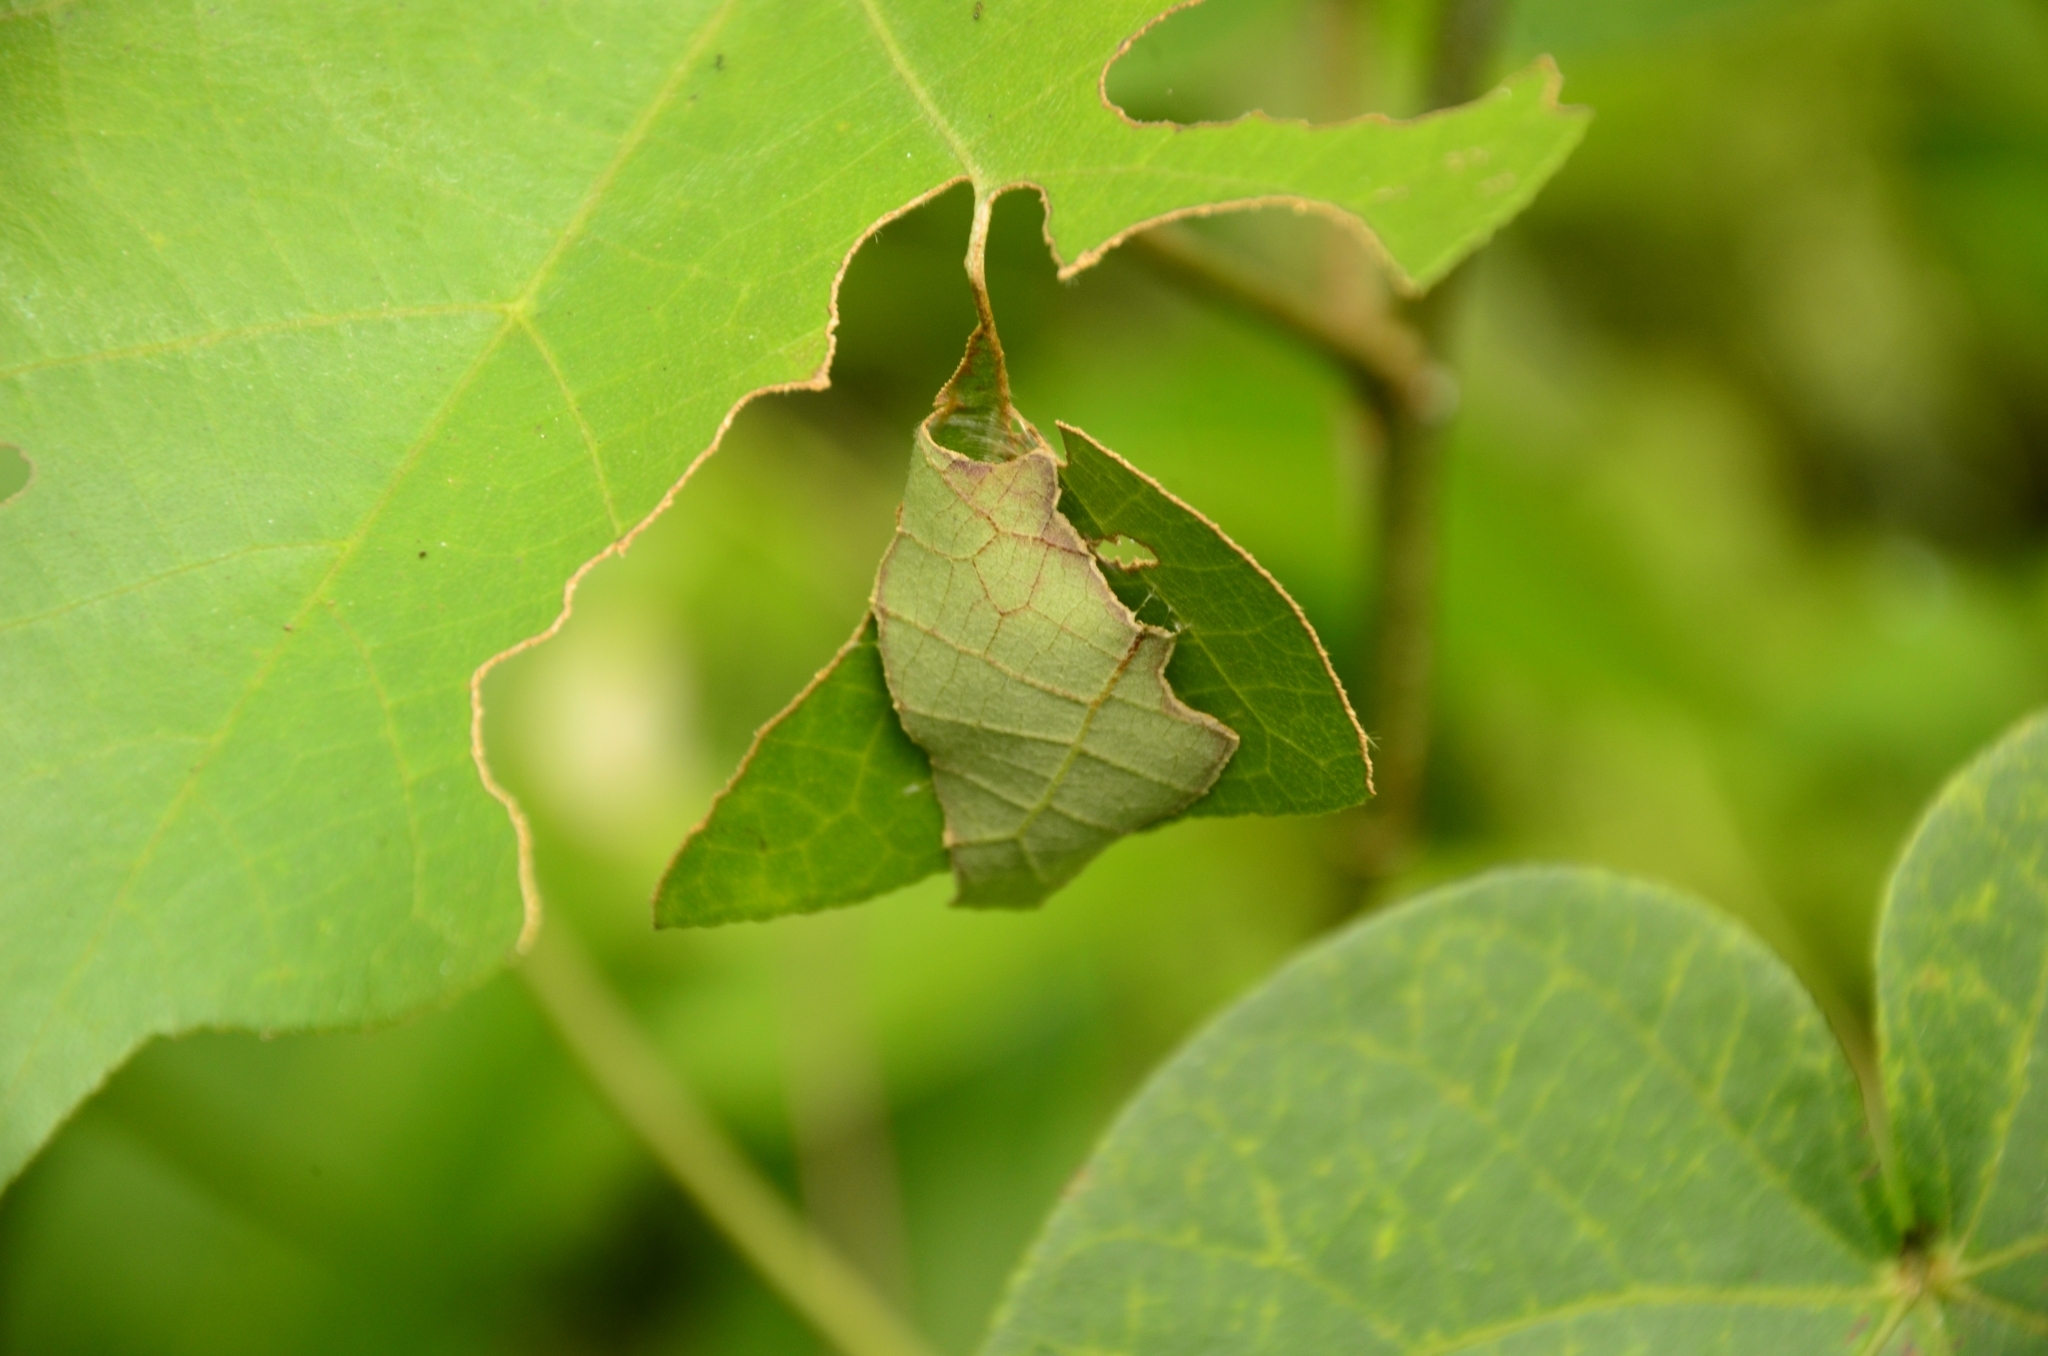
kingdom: Animalia
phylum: Arthropoda
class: Insecta
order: Lepidoptera
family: Hesperiidae
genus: Coladenia
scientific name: Coladenia
